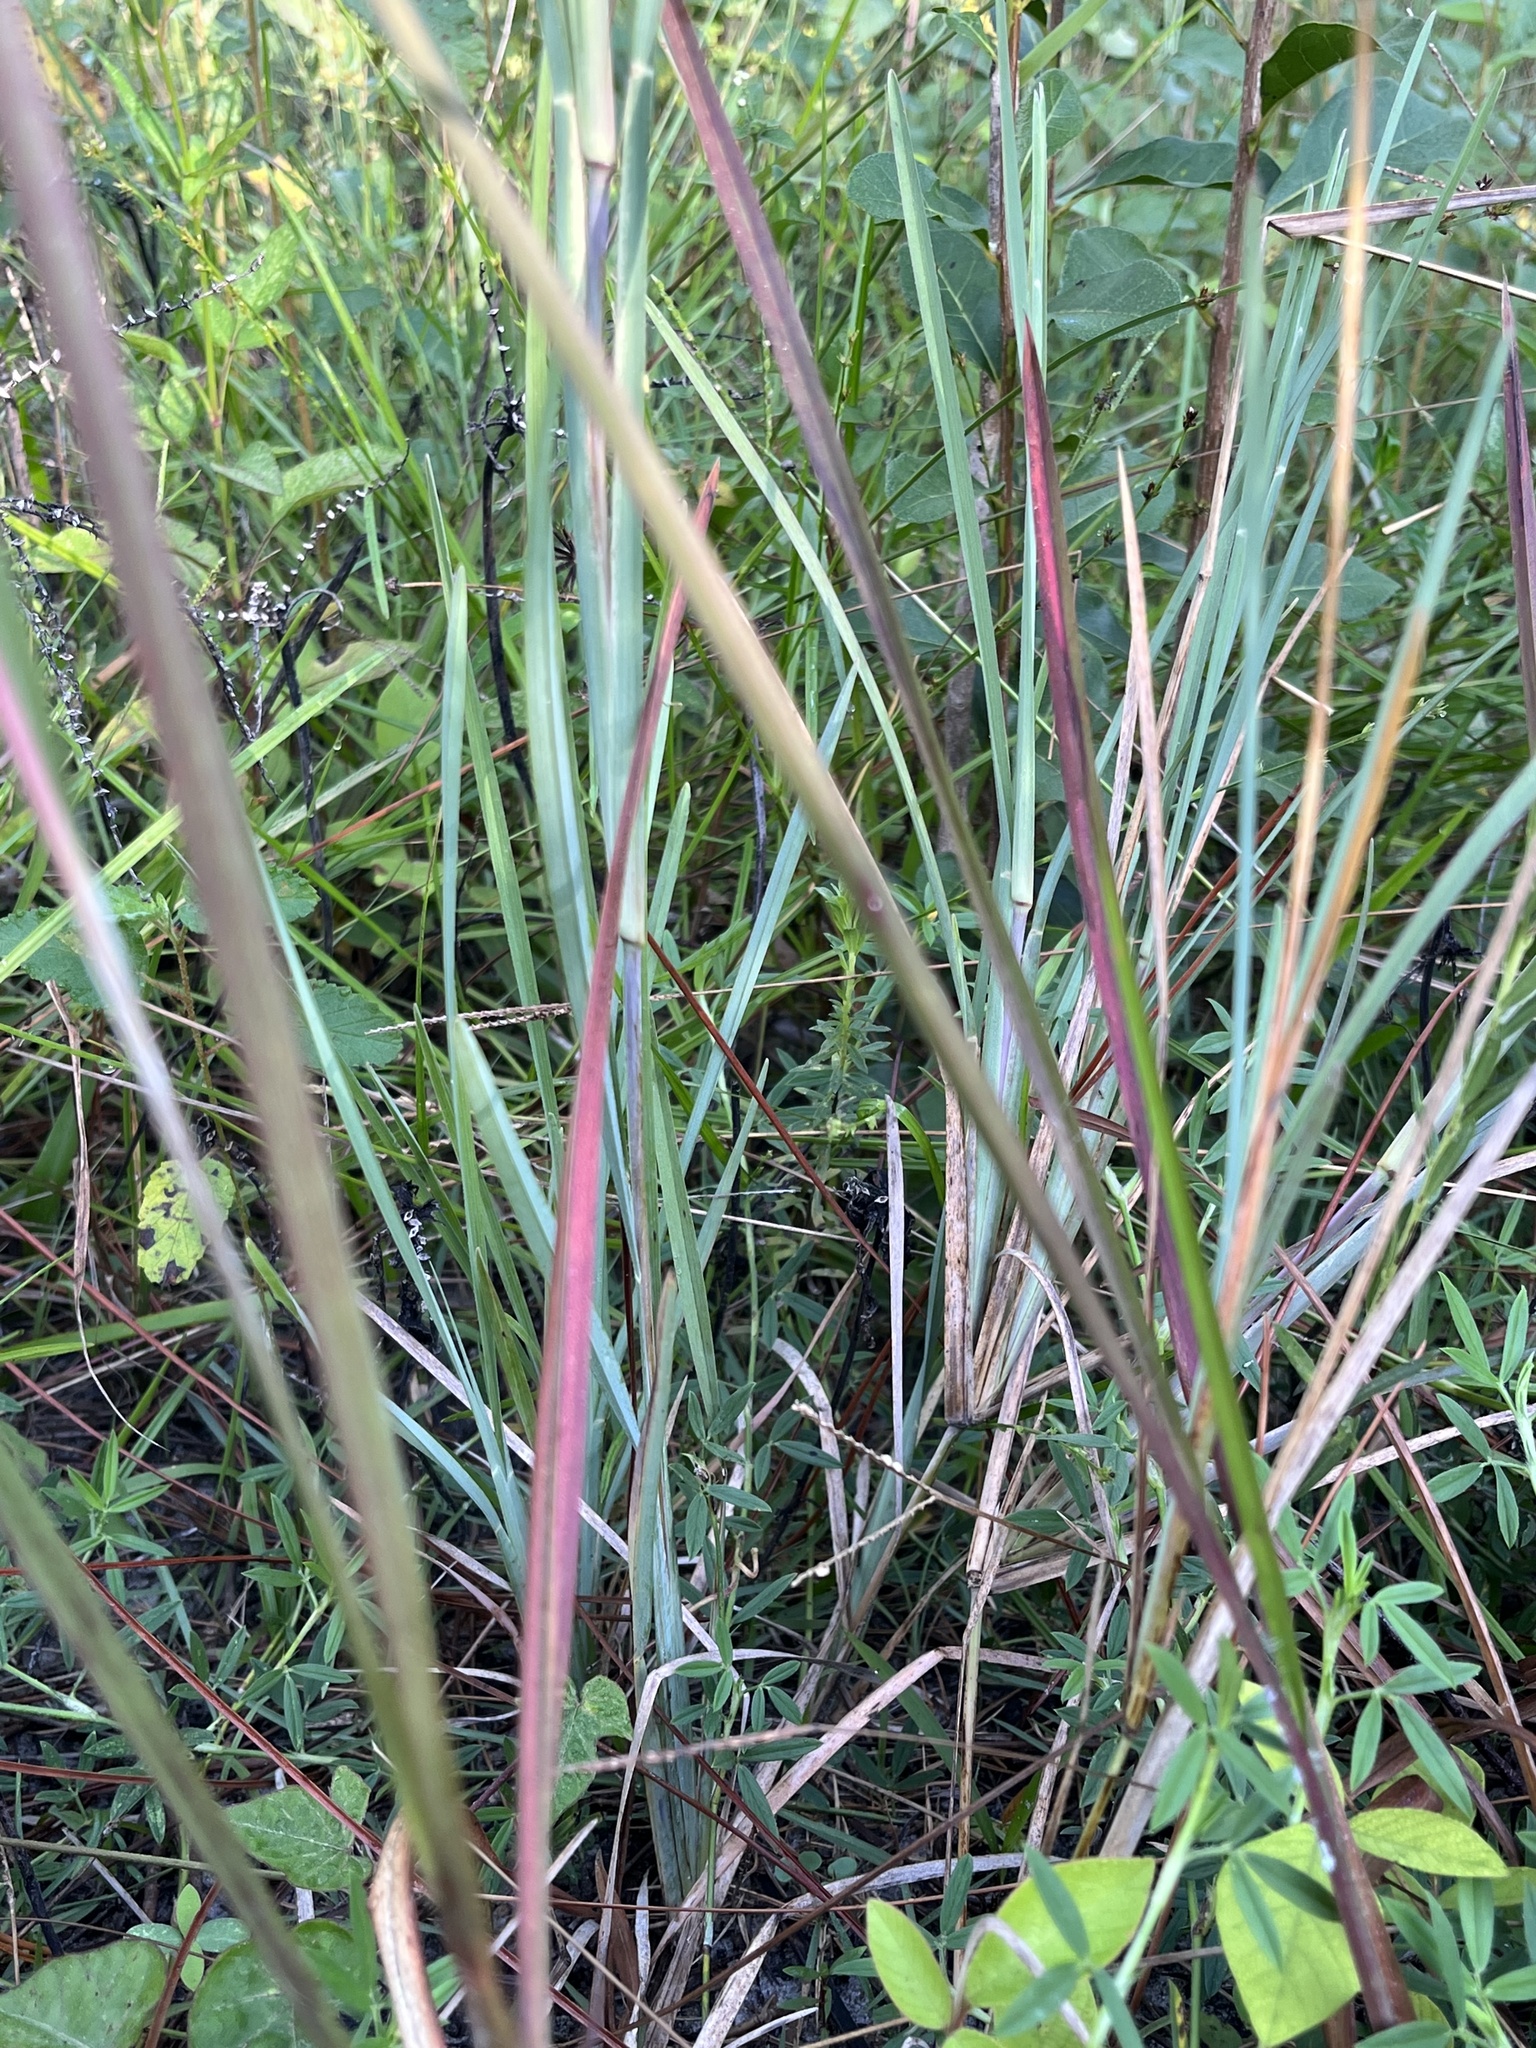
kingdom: Plantae
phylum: Tracheophyta
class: Liliopsida
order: Poales
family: Poaceae
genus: Eustachys
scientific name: Eustachys petraea
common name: Pinewoods fingergrass
